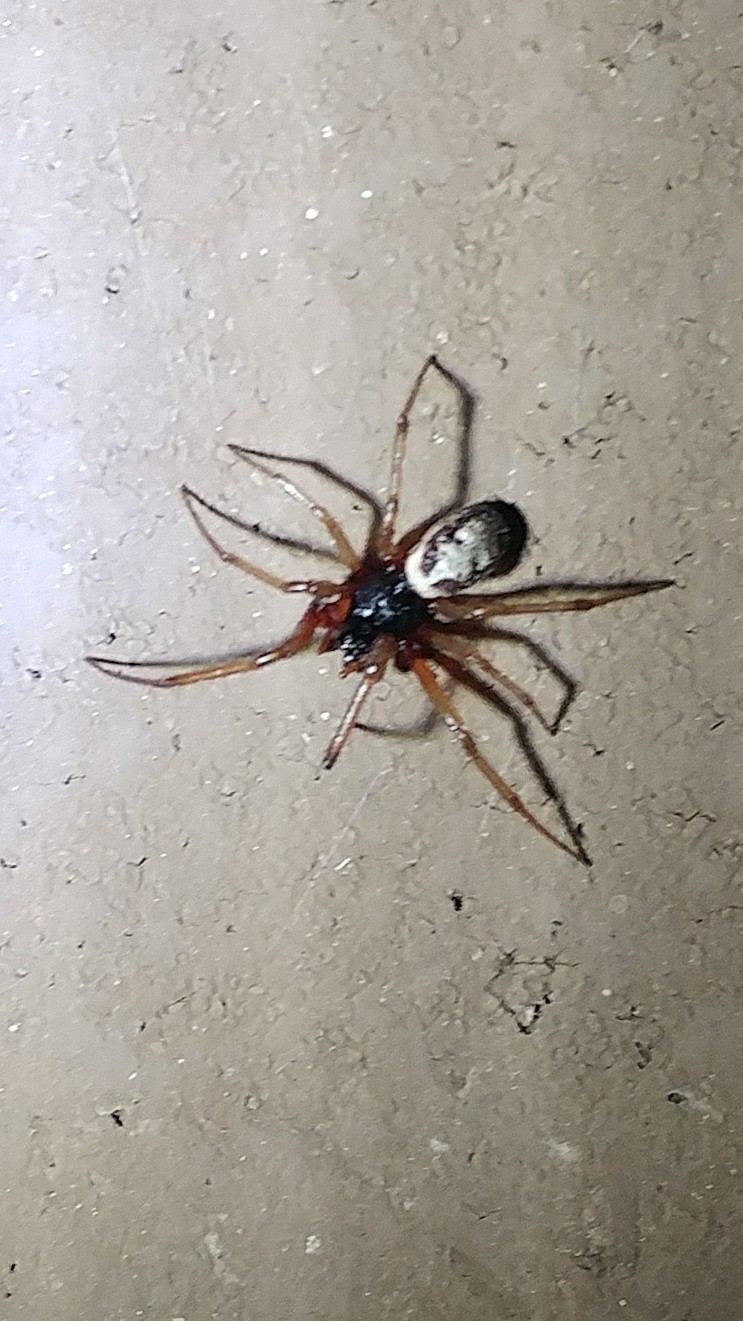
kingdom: Animalia
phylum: Arthropoda
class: Arachnida
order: Araneae
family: Theridiidae
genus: Steatoda
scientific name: Steatoda nobilis
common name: Cobweb weaver
